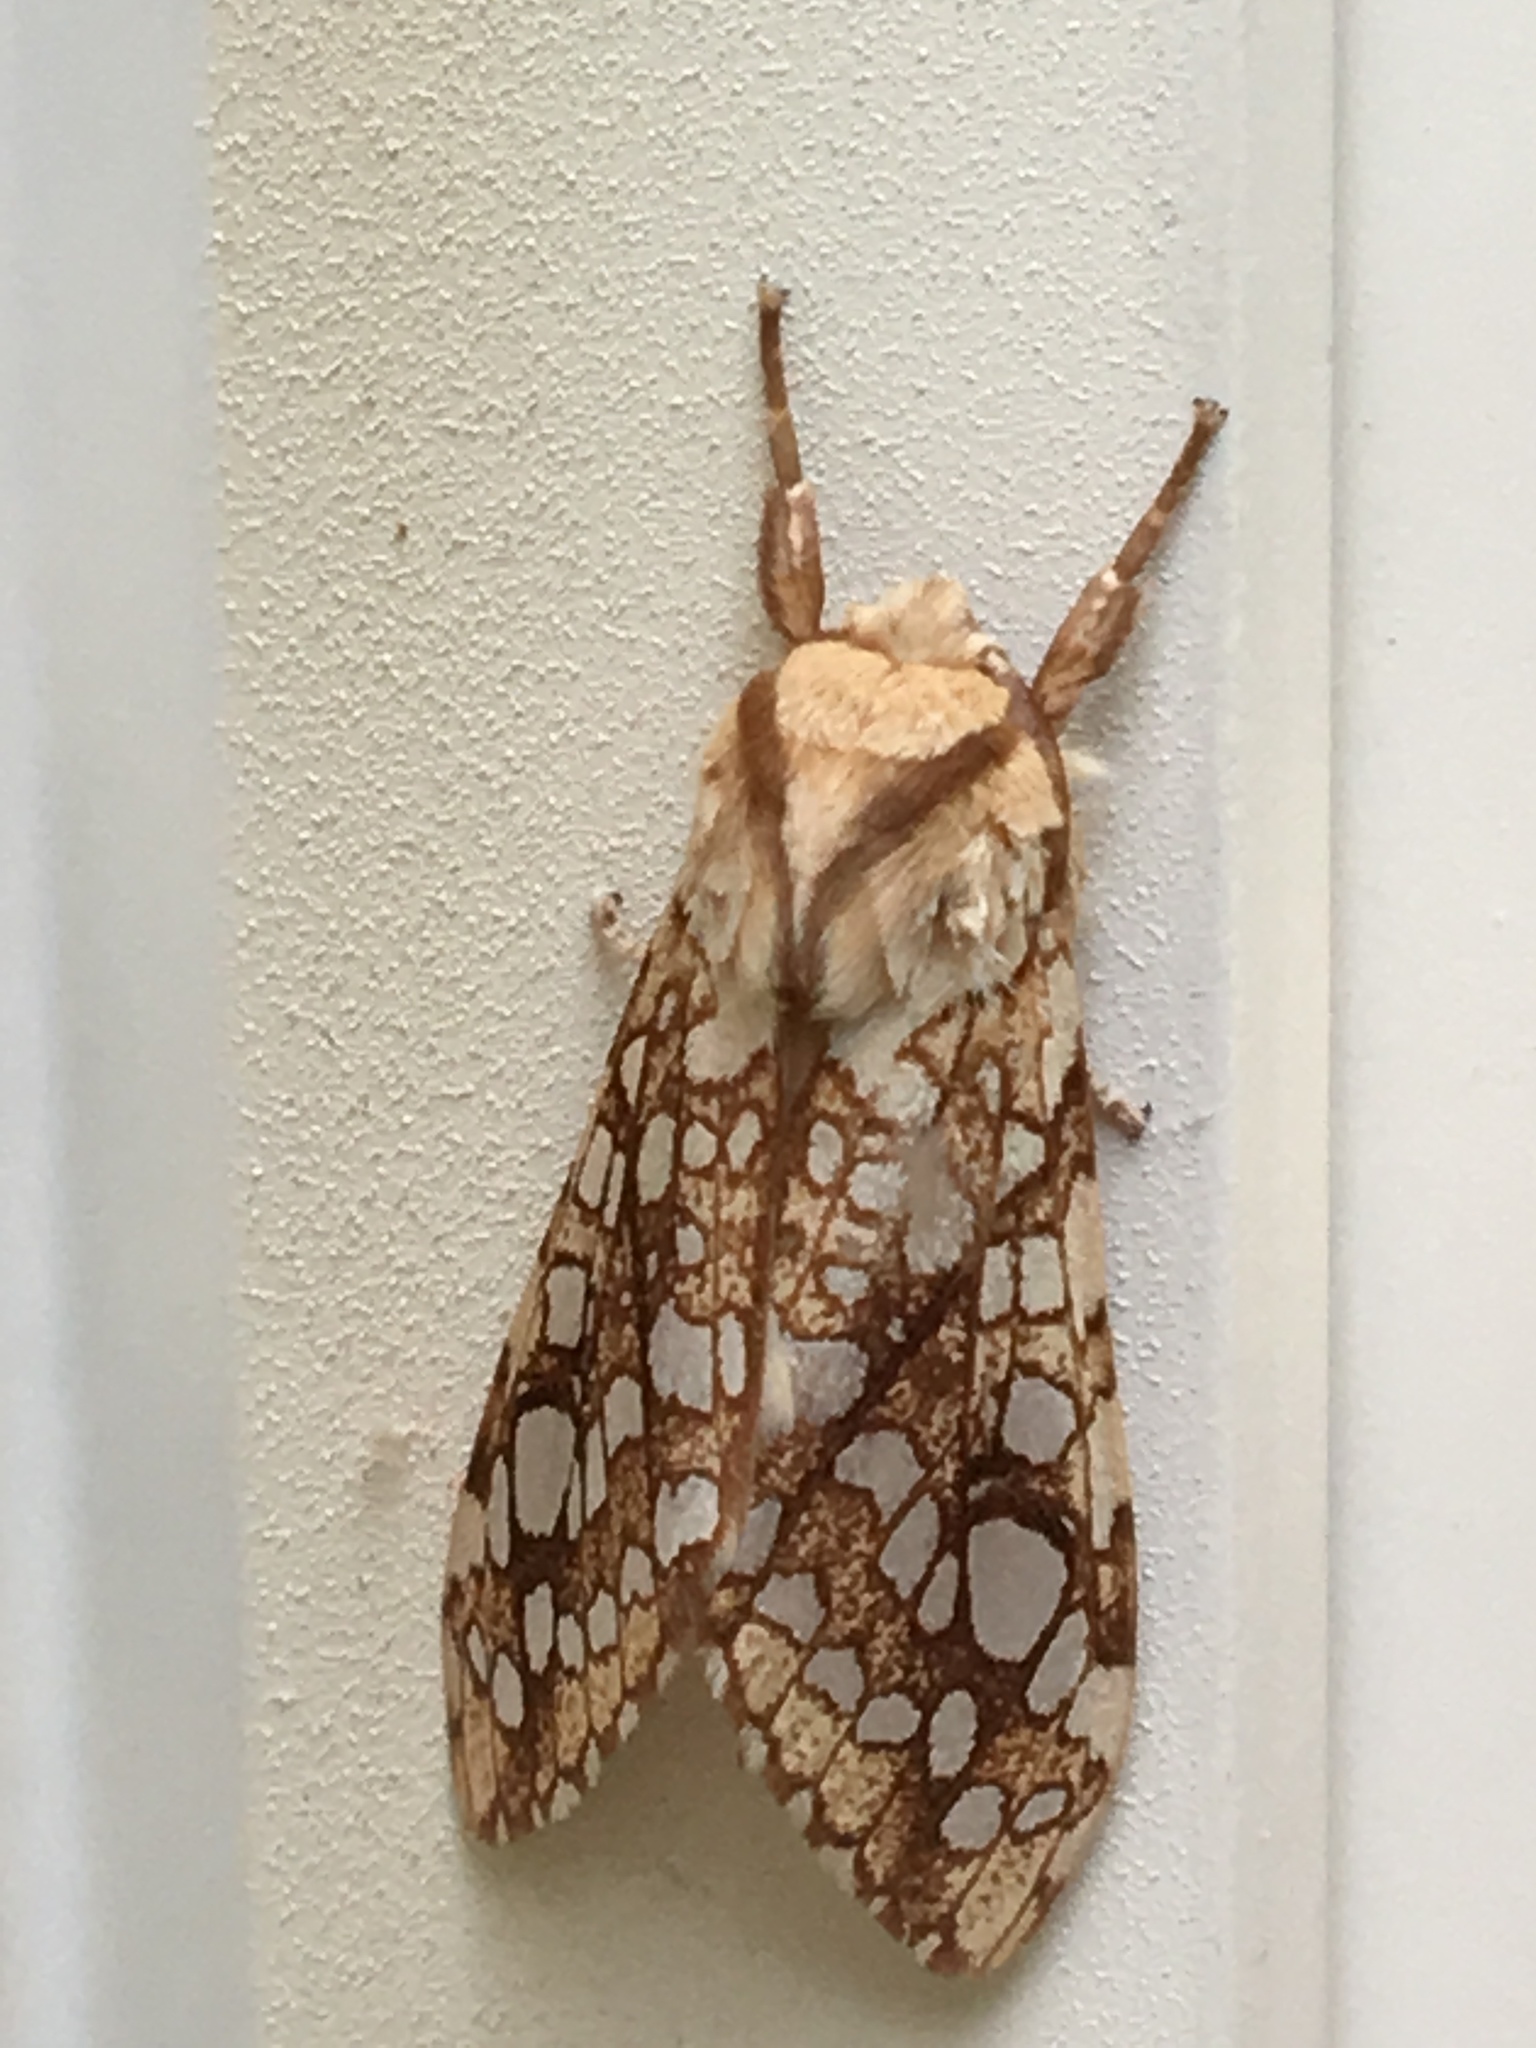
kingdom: Animalia
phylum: Arthropoda
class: Insecta
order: Lepidoptera
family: Erebidae
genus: Lophocampa
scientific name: Lophocampa caryae
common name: Hickory tussock moth
